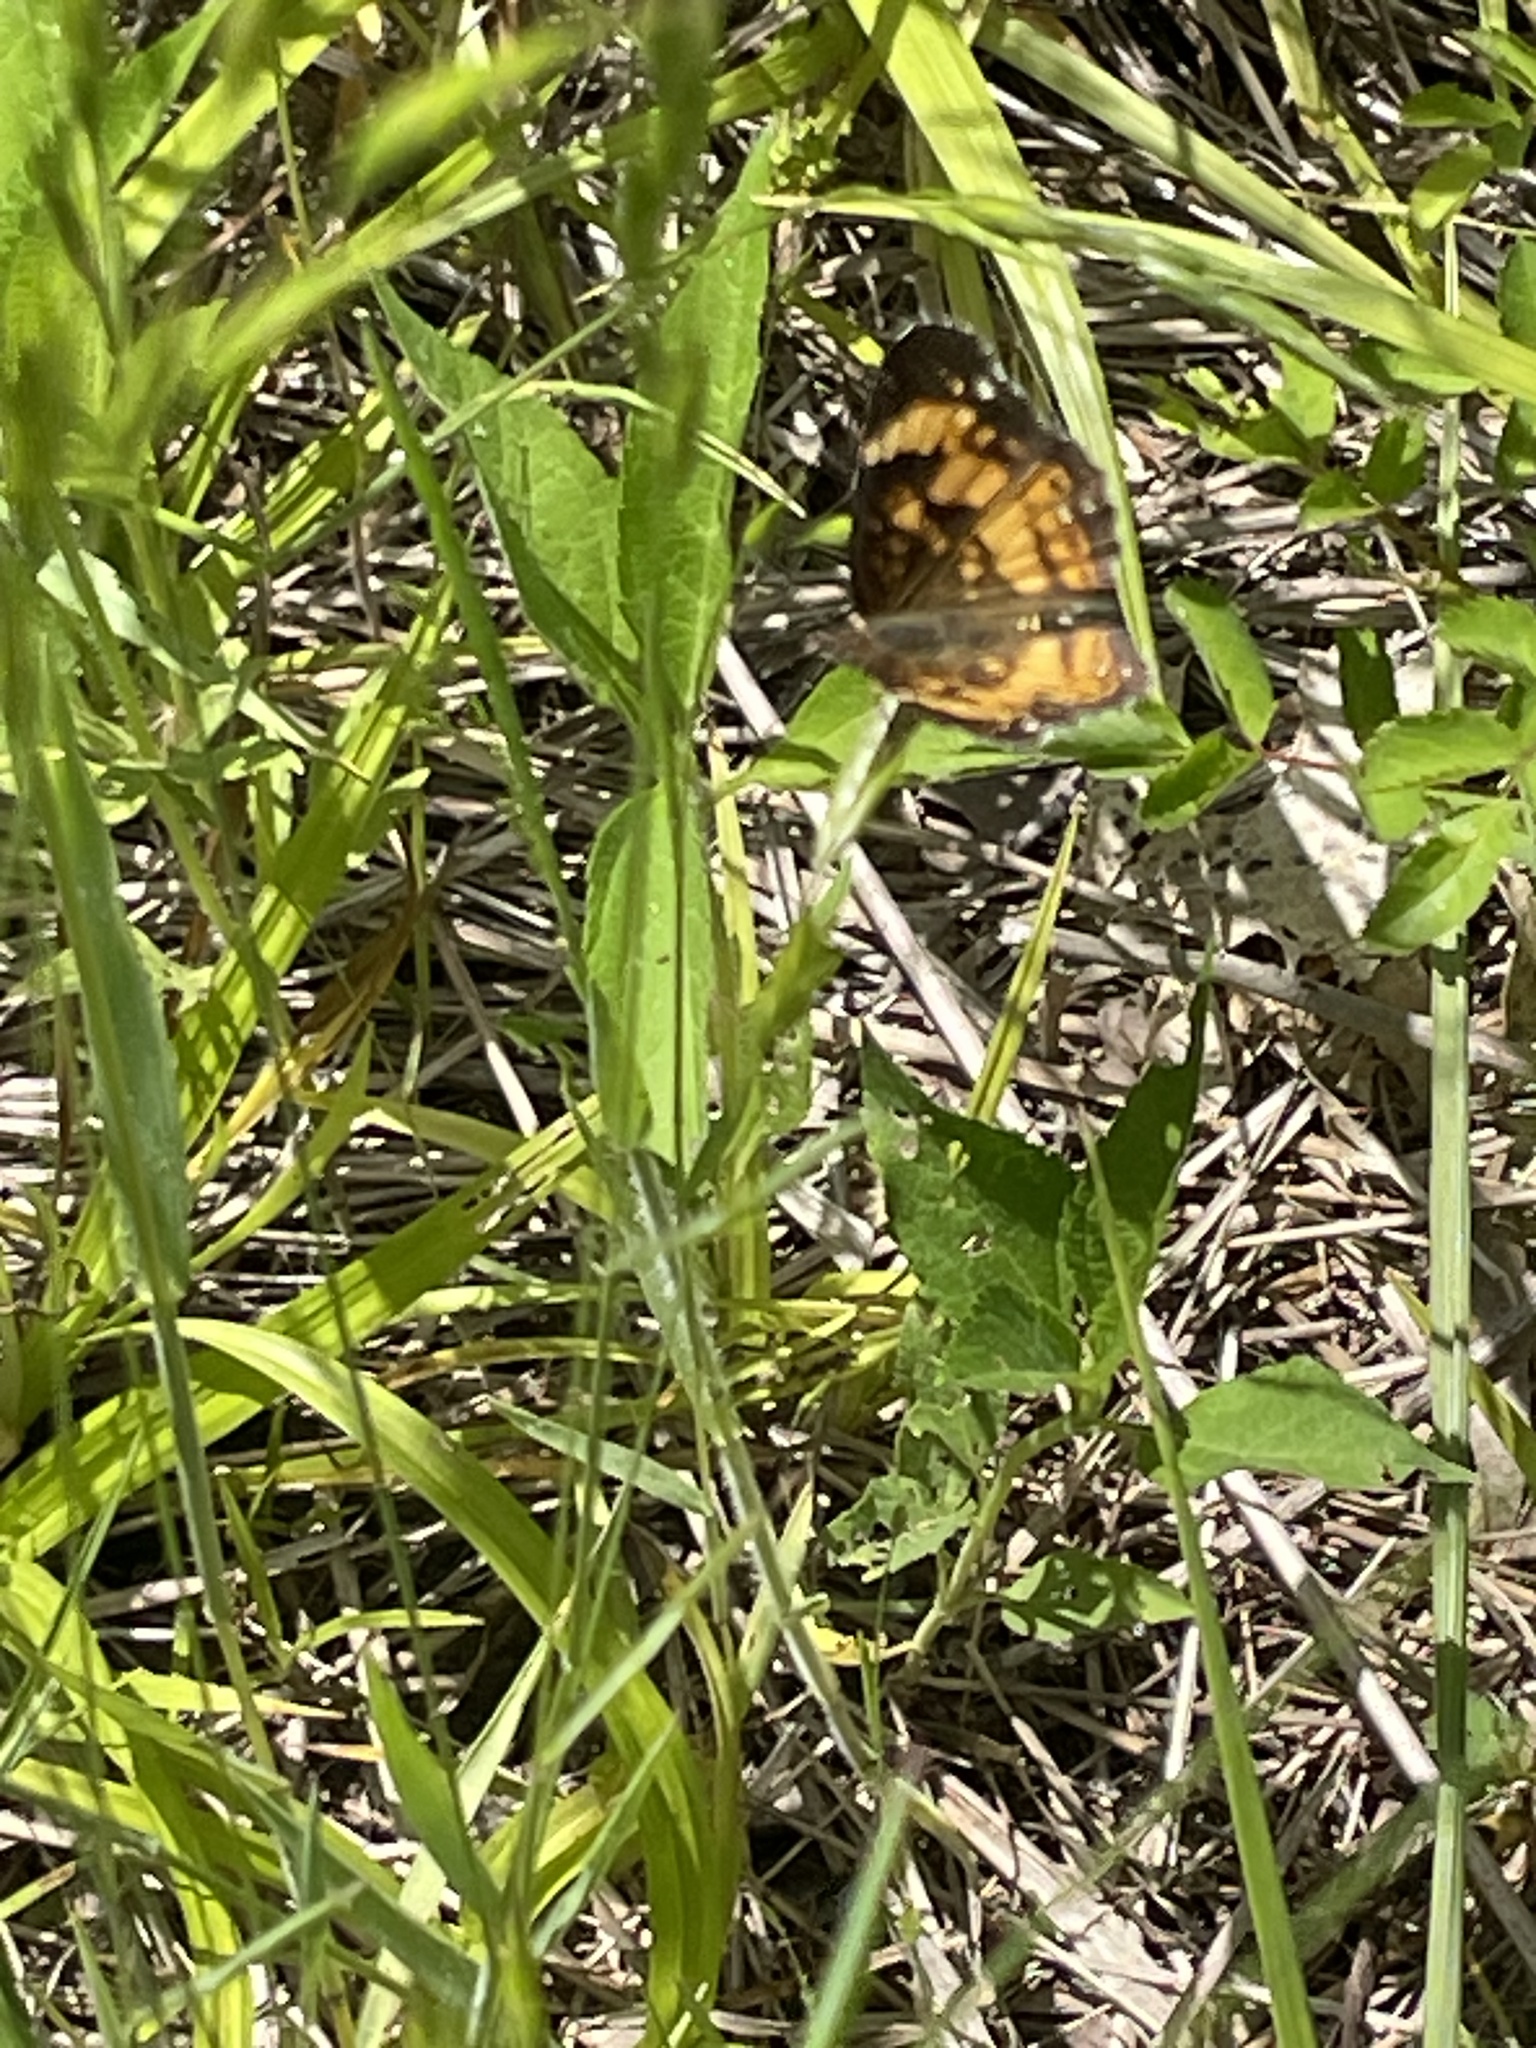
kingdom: Animalia
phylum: Arthropoda
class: Insecta
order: Lepidoptera
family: Nymphalidae
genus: Chlosyne
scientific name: Chlosyne nycteis
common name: Silvery checkerspot
